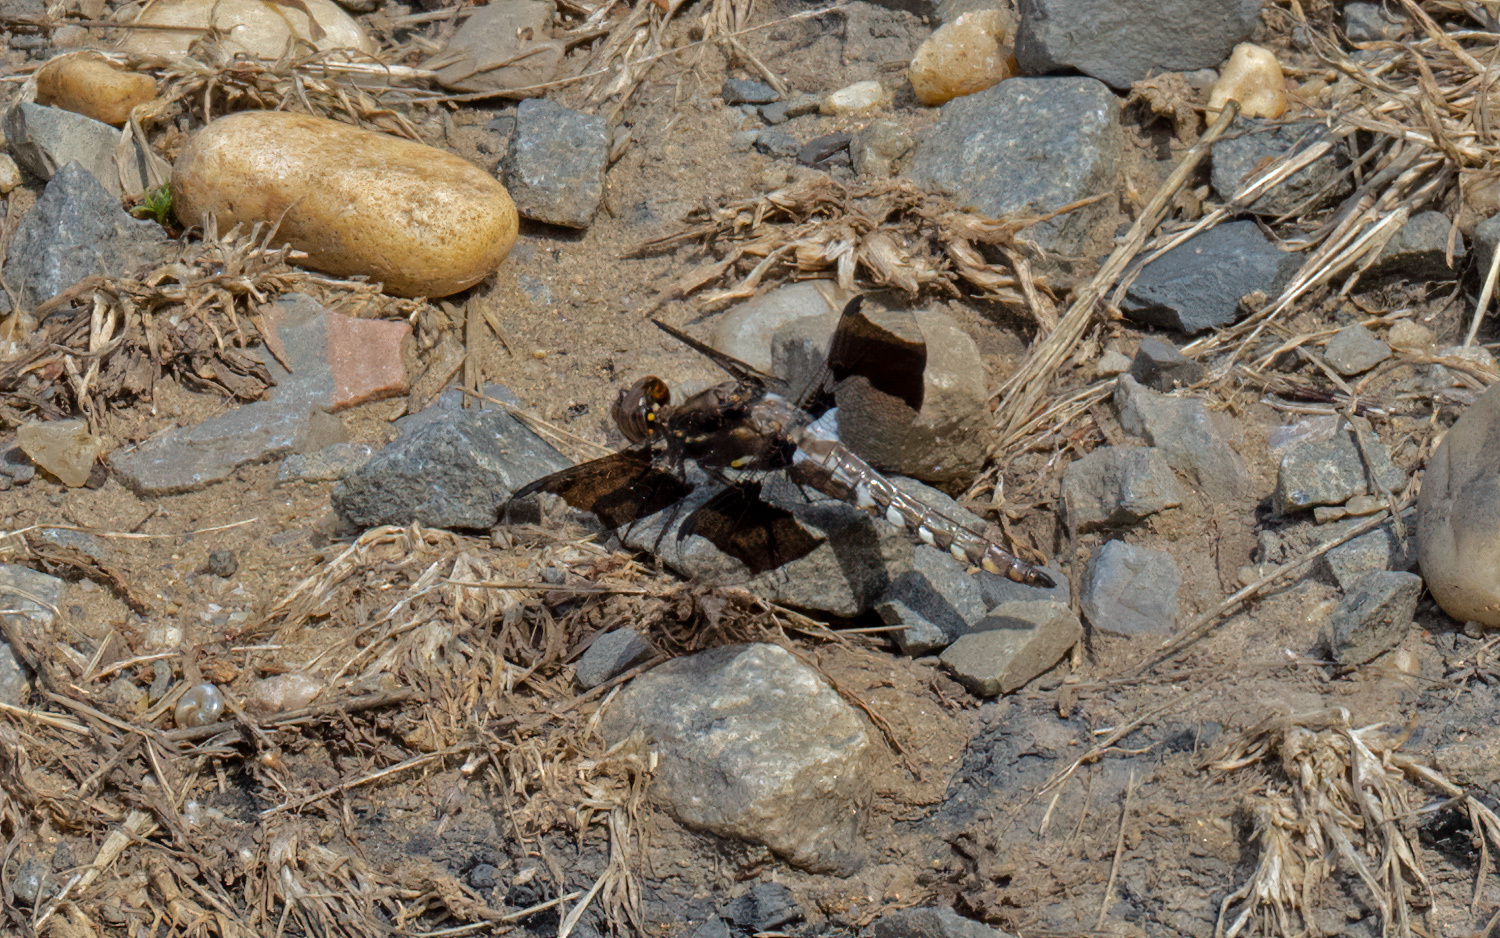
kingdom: Animalia
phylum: Arthropoda
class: Insecta
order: Odonata
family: Libellulidae
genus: Plathemis
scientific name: Plathemis lydia
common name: Common whitetail
